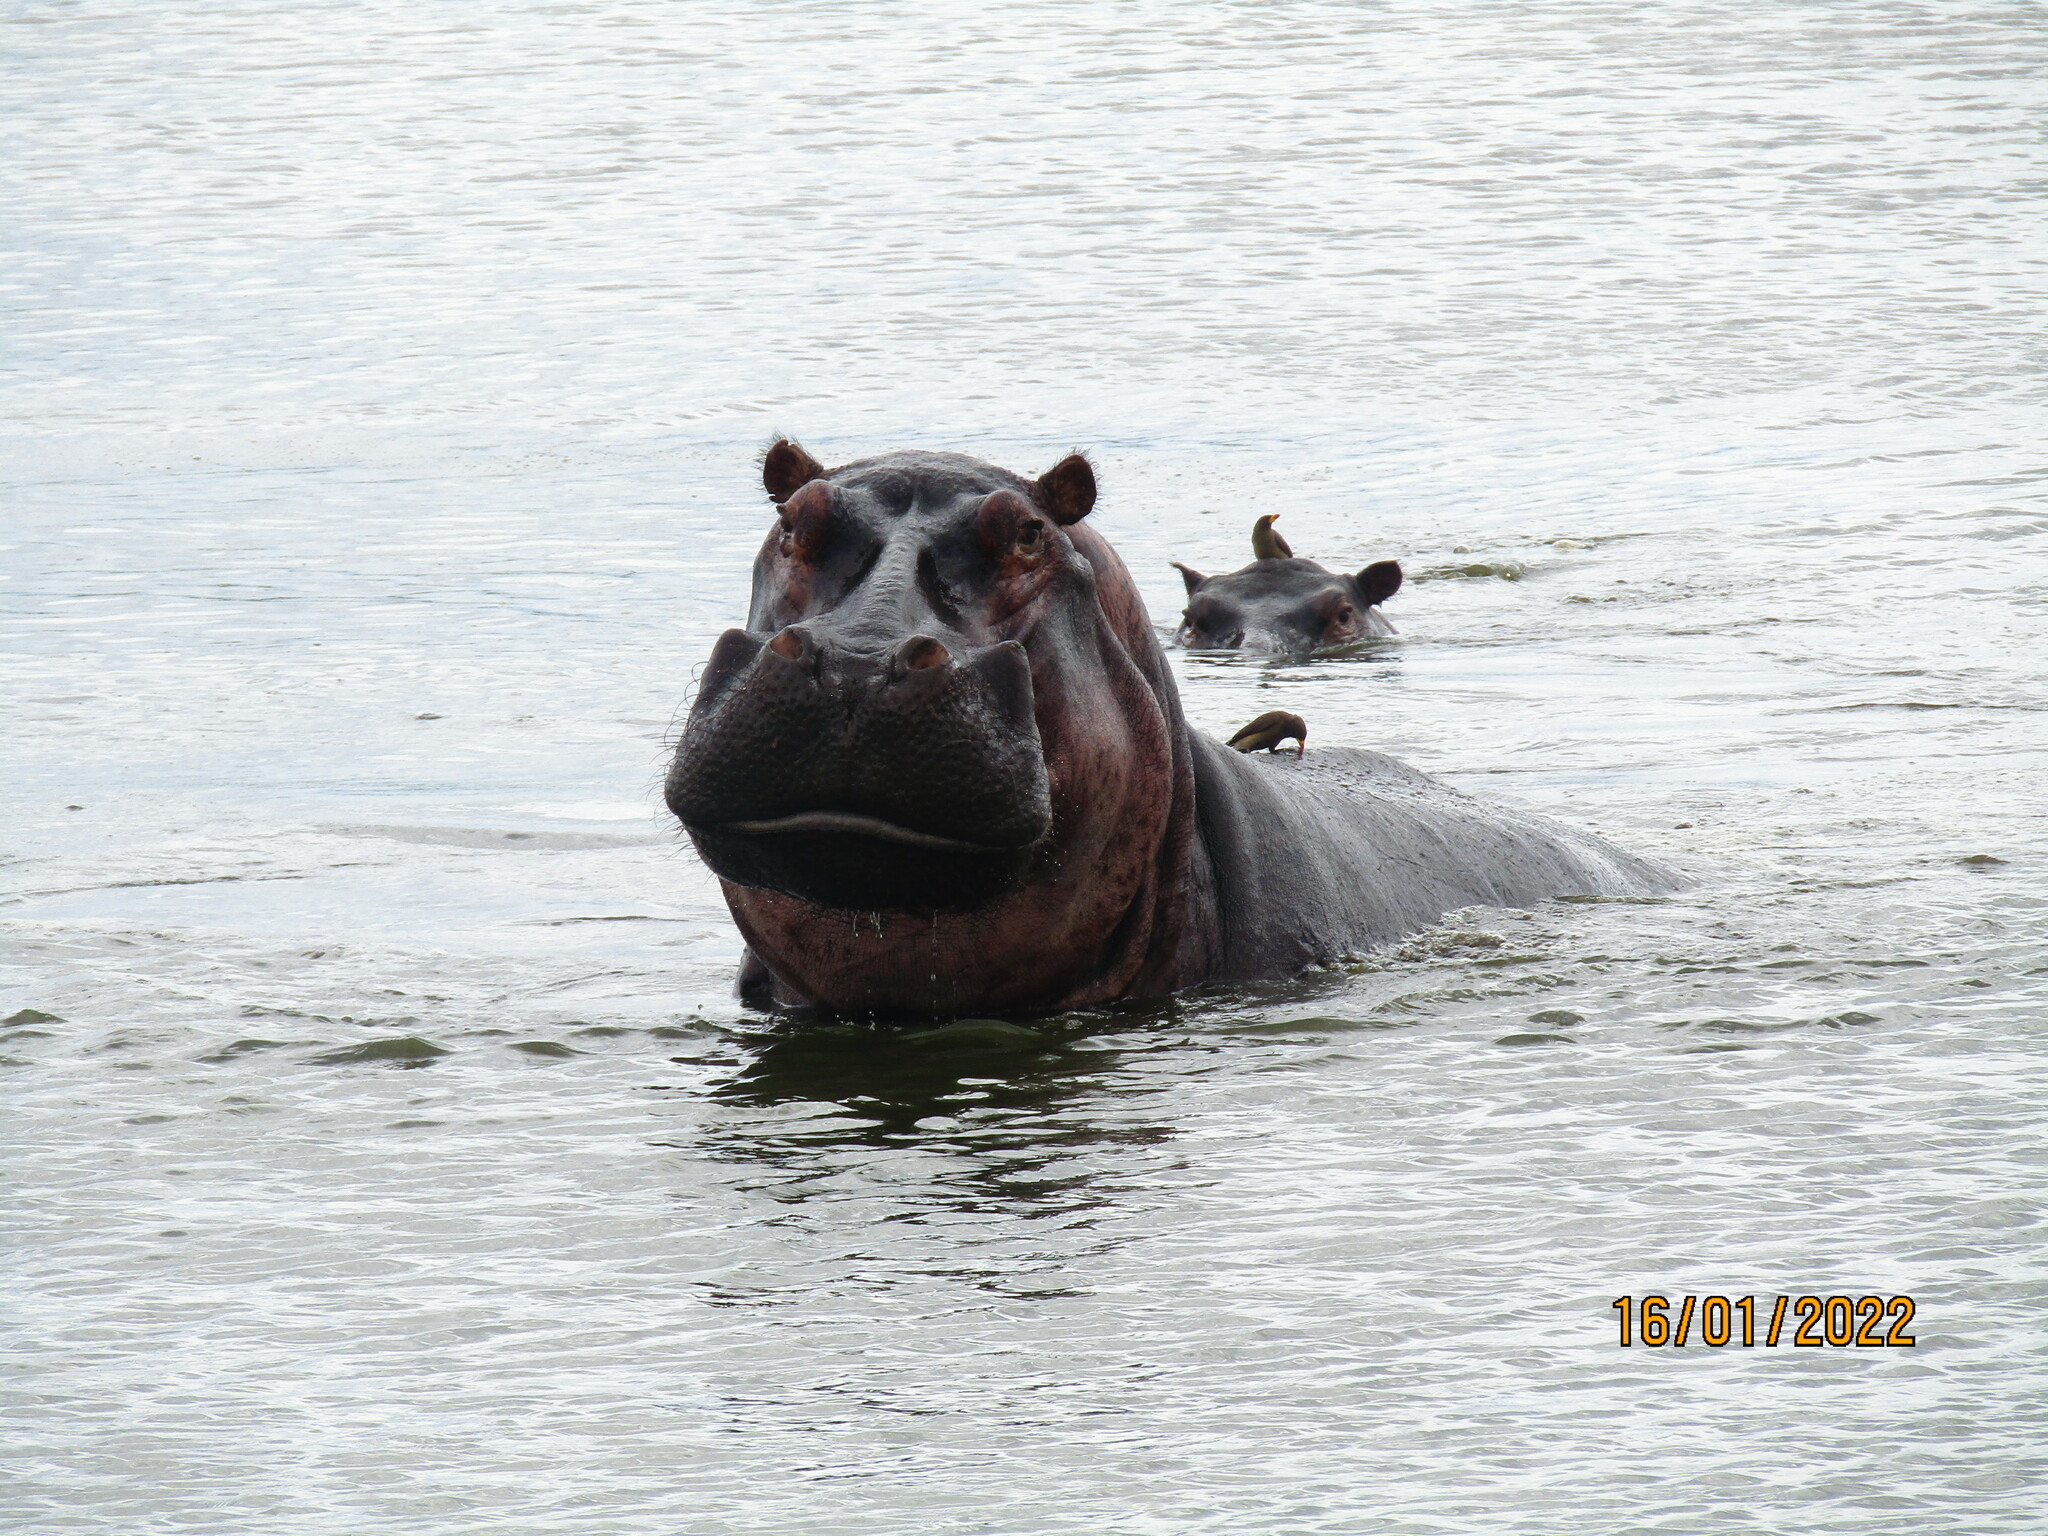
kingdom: Animalia
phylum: Chordata
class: Mammalia
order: Artiodactyla
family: Hippopotamidae
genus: Hippopotamus
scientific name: Hippopotamus amphibius
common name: Common hippopotamus
